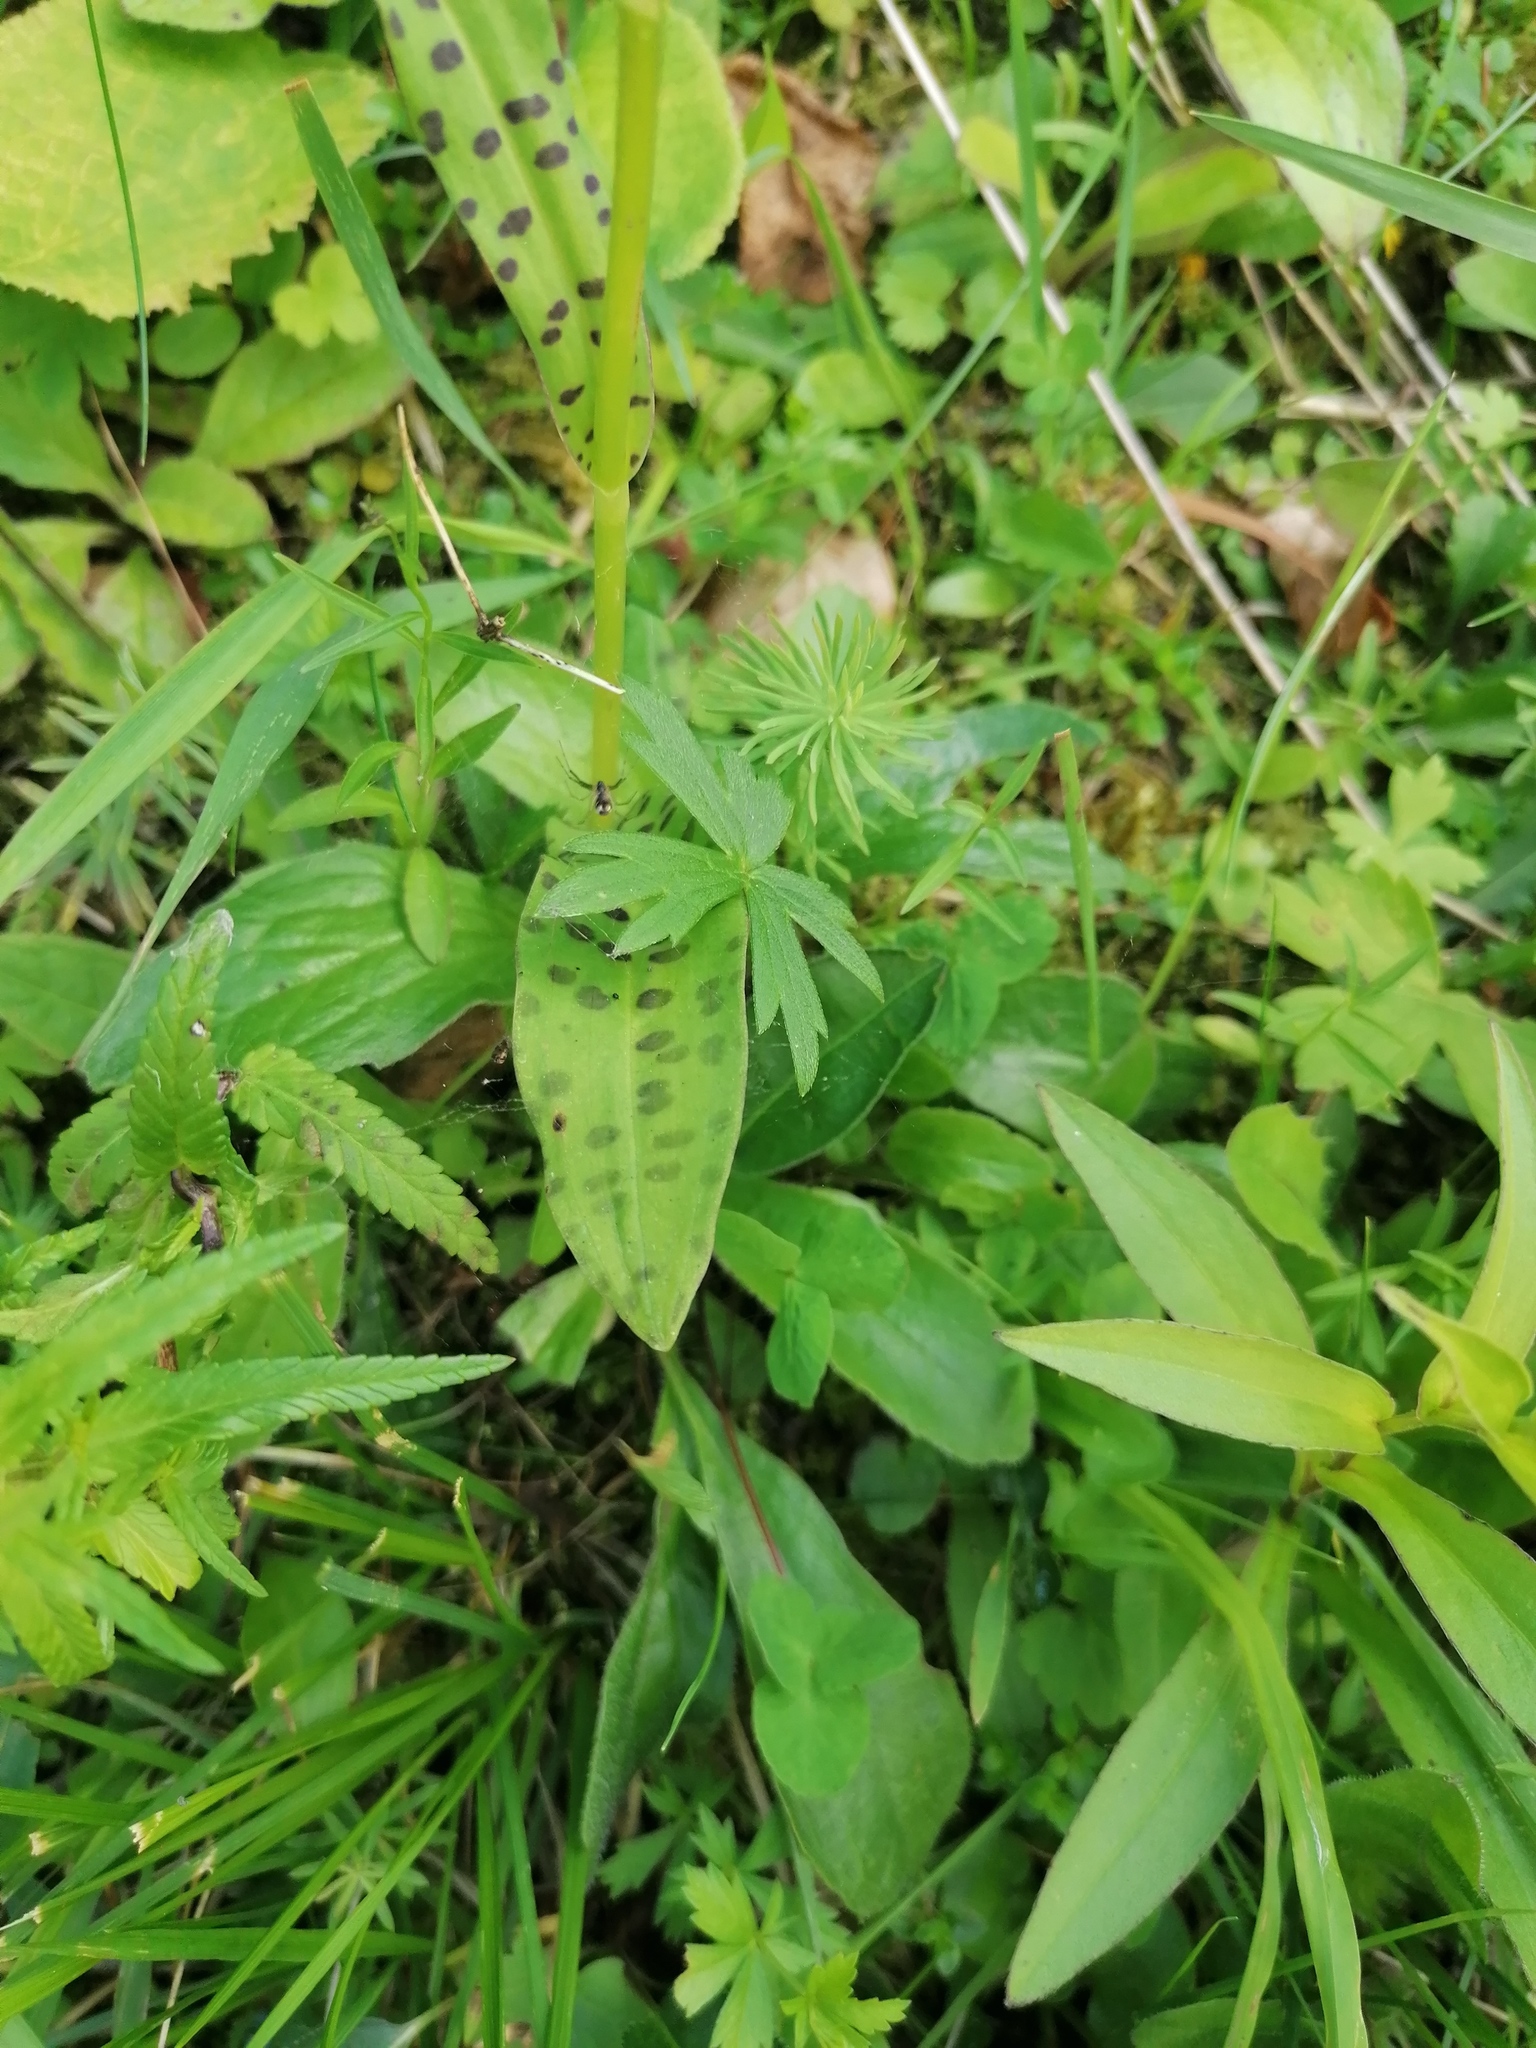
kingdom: Plantae
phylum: Tracheophyta
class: Liliopsida
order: Asparagales
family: Orchidaceae
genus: Dactylorhiza
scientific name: Dactylorhiza maculata
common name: Heath spotted-orchid
